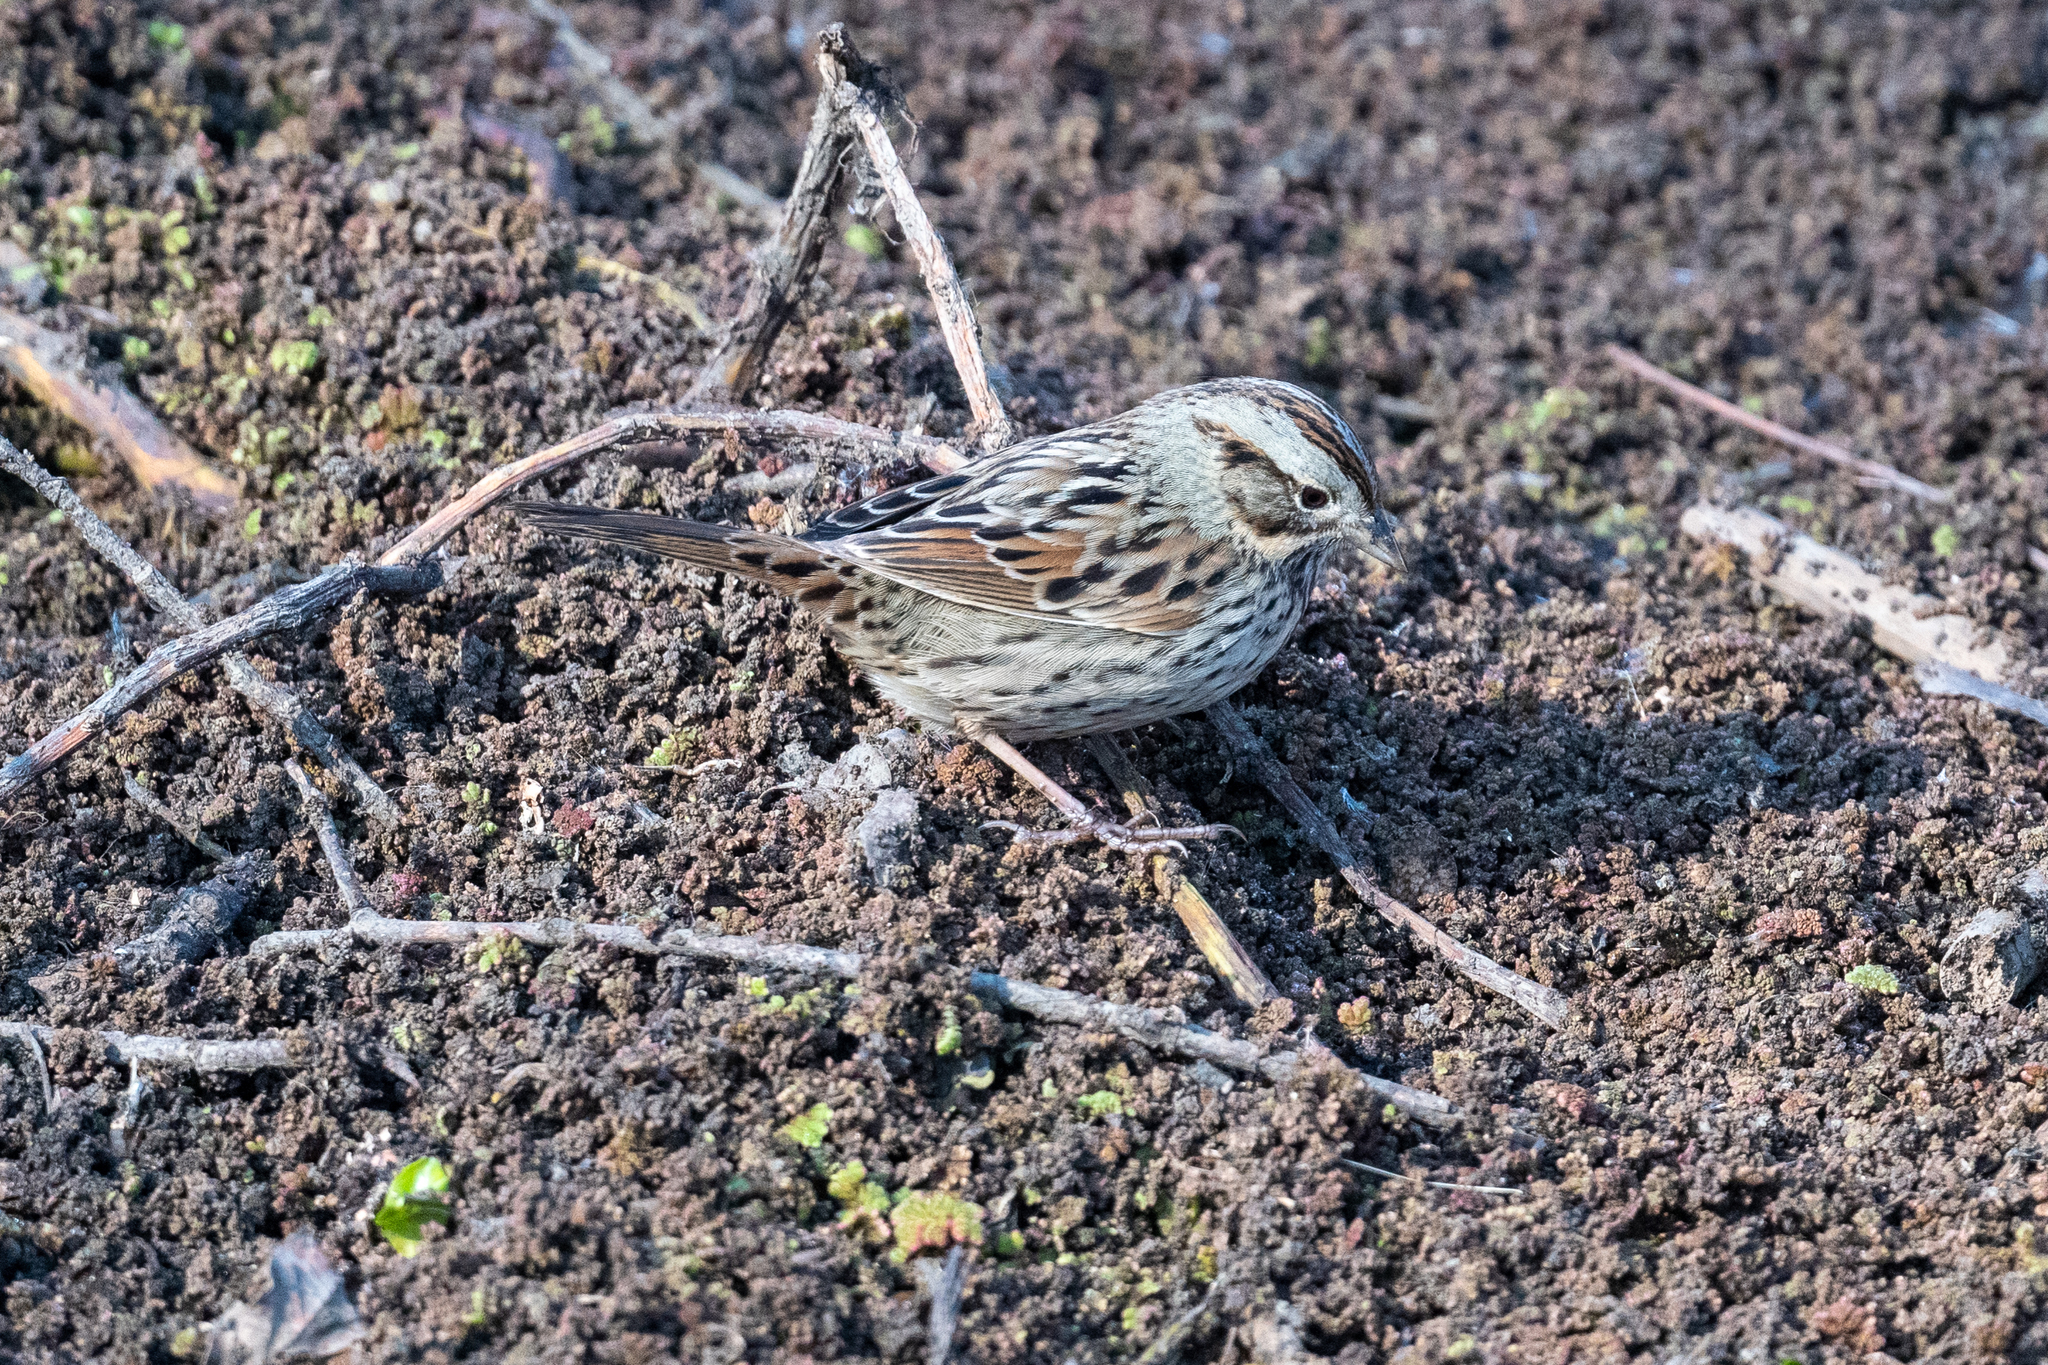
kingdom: Animalia
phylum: Chordata
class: Aves
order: Passeriformes
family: Passerellidae
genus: Melospiza
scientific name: Melospiza melodia
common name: Song sparrow
